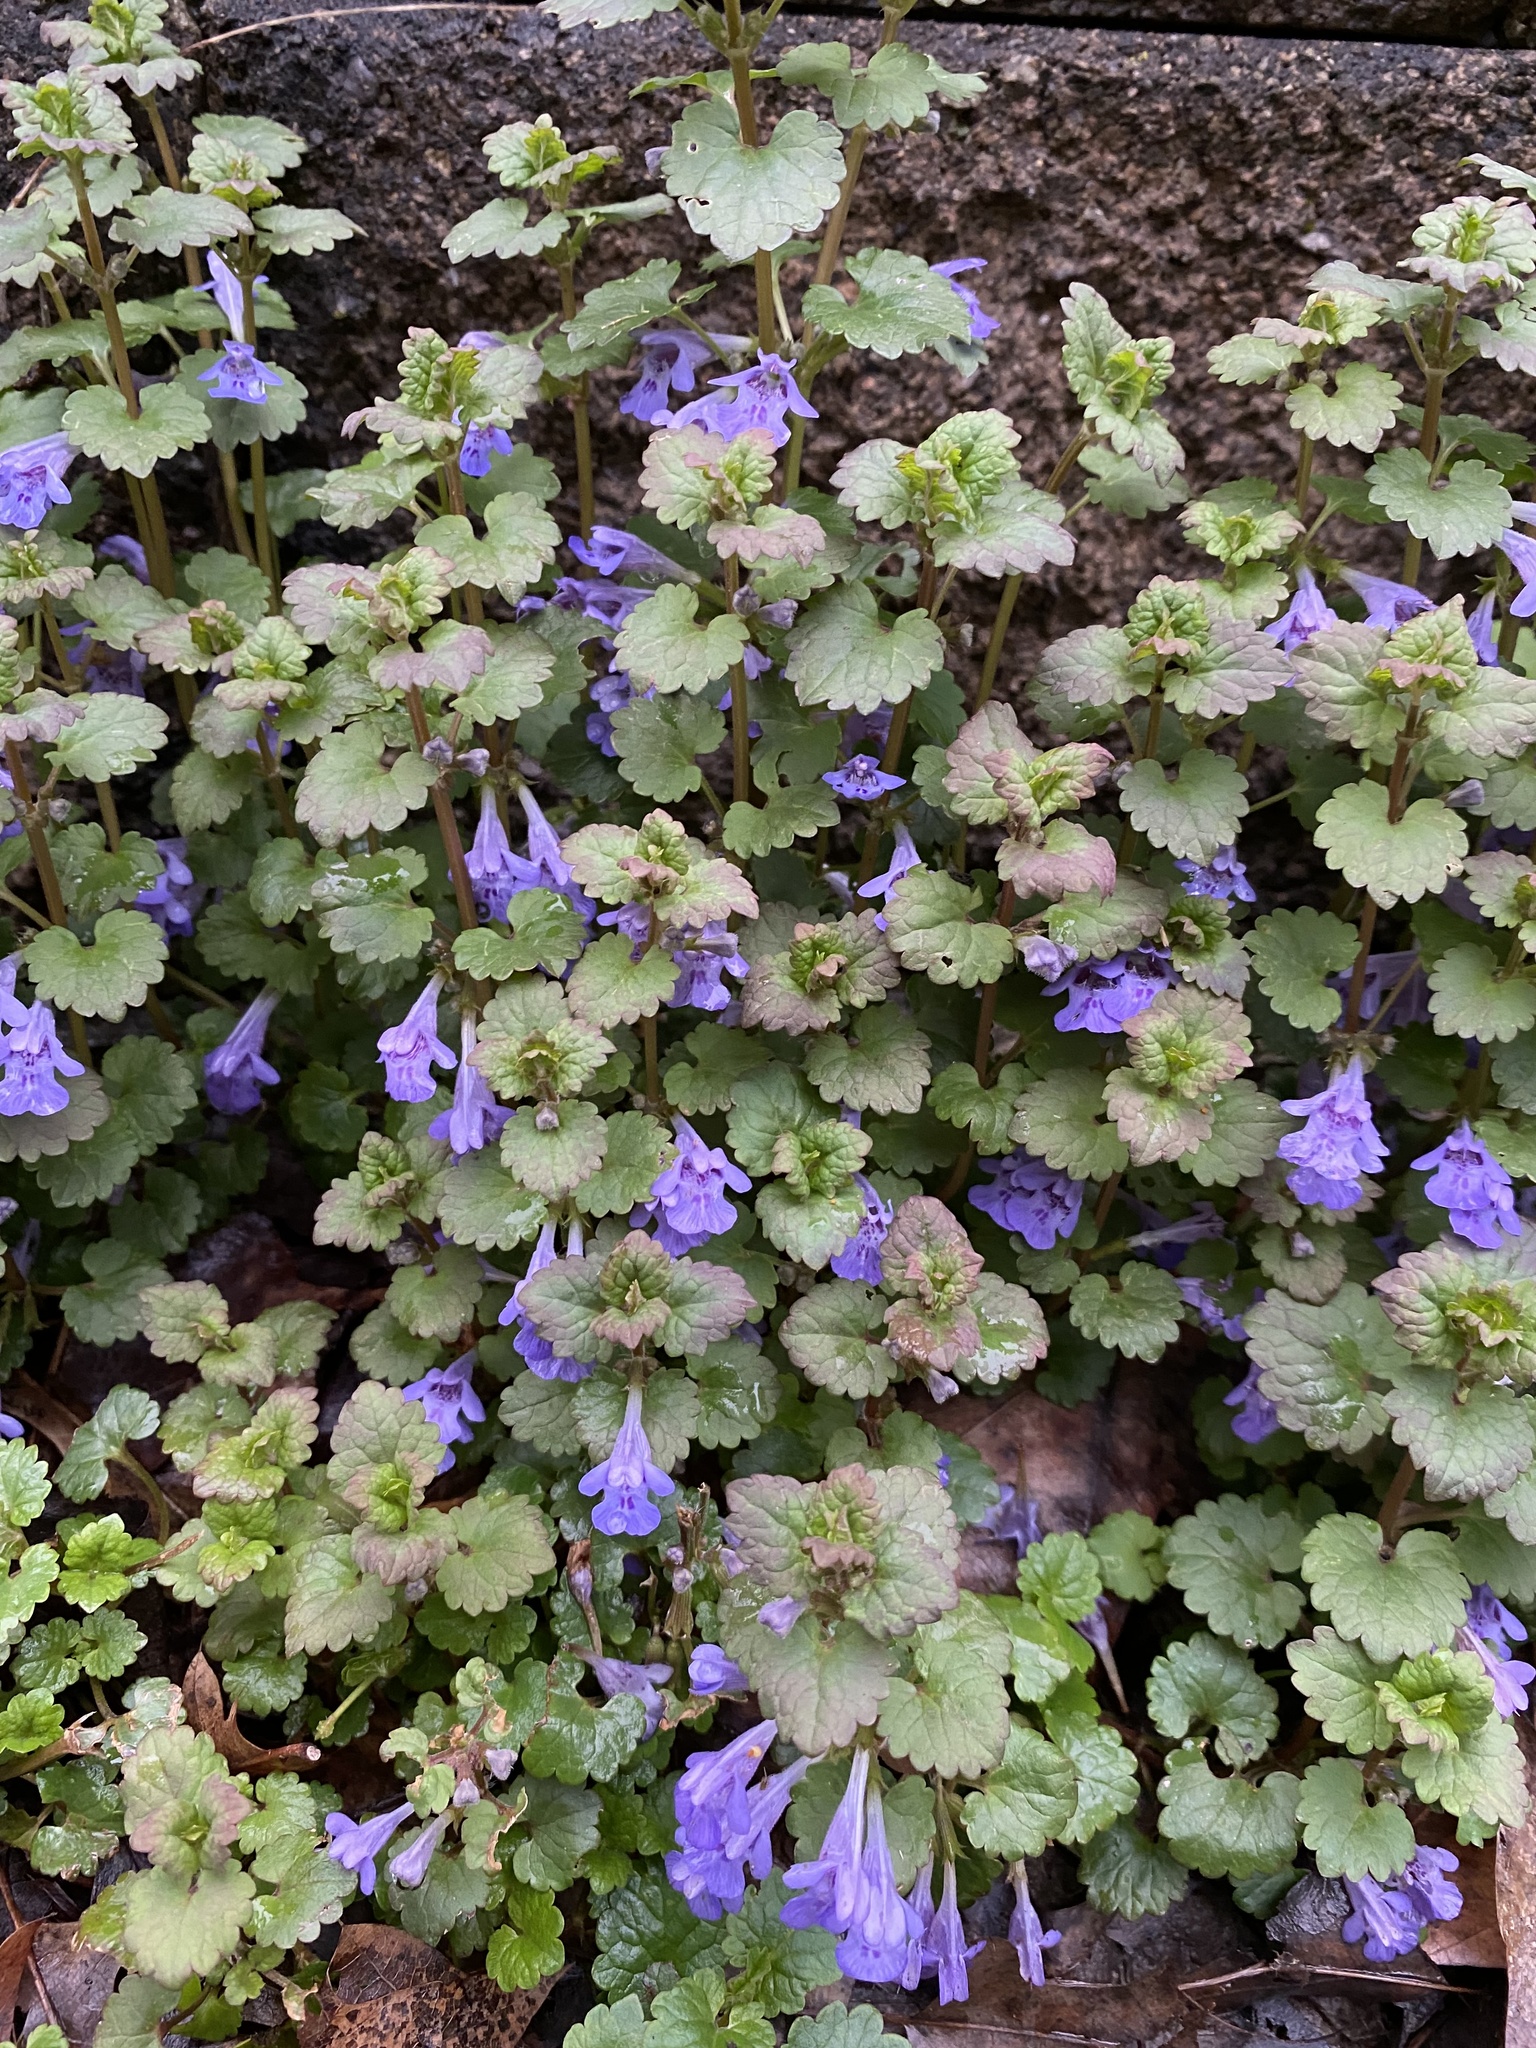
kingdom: Plantae
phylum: Tracheophyta
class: Magnoliopsida
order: Lamiales
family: Lamiaceae
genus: Glechoma
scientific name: Glechoma hederacea
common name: Ground ivy
